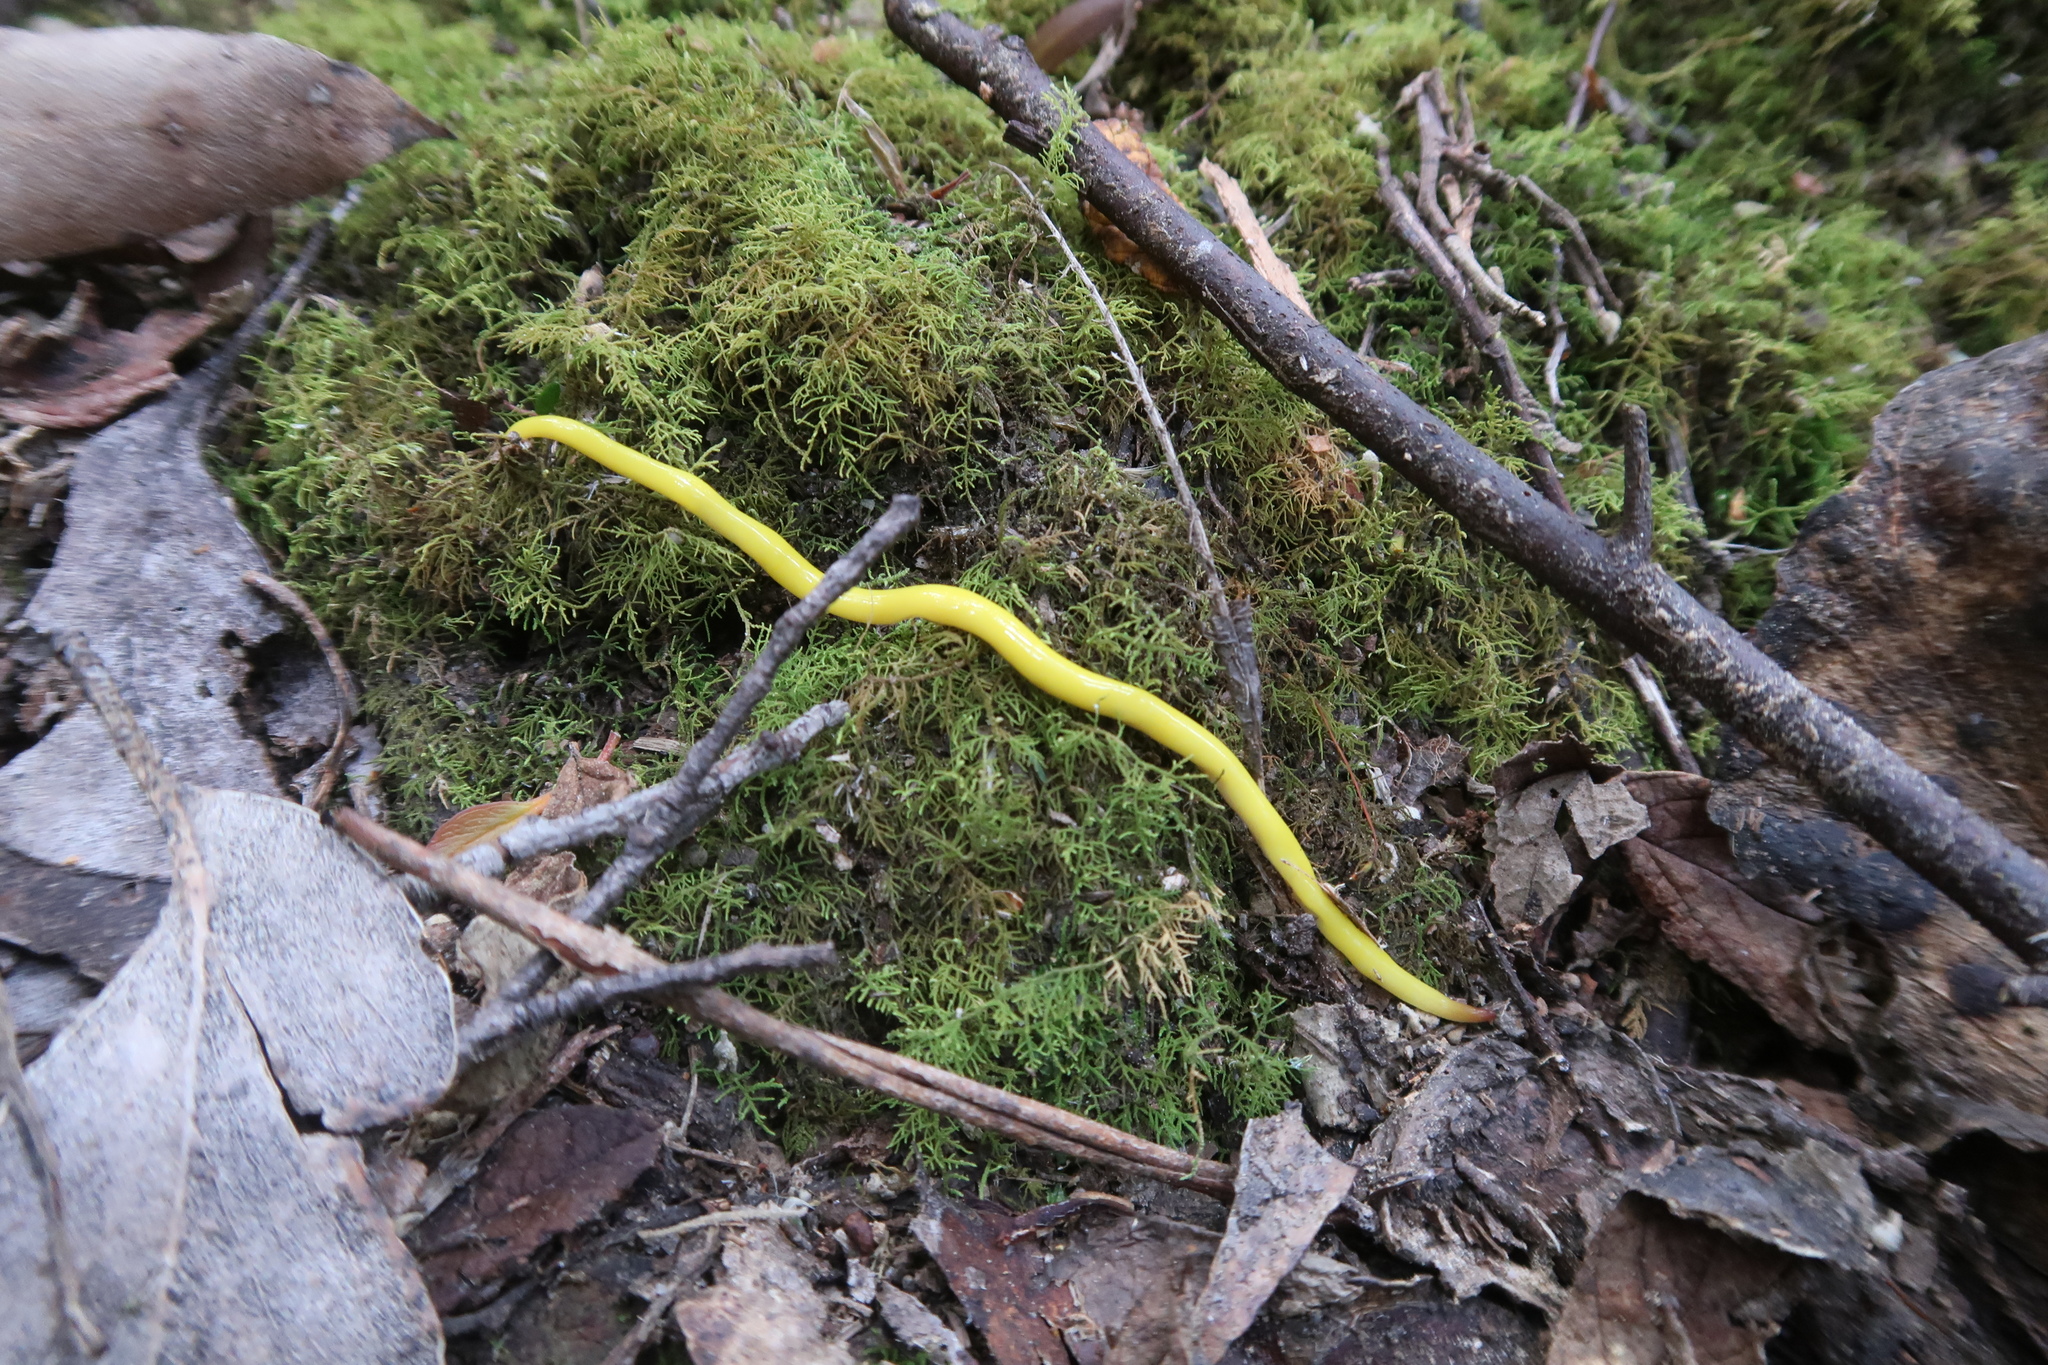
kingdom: Animalia
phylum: Platyhelminthes
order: Tricladida
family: Geoplanidae
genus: Fletchamia
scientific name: Fletchamia sugdeni
